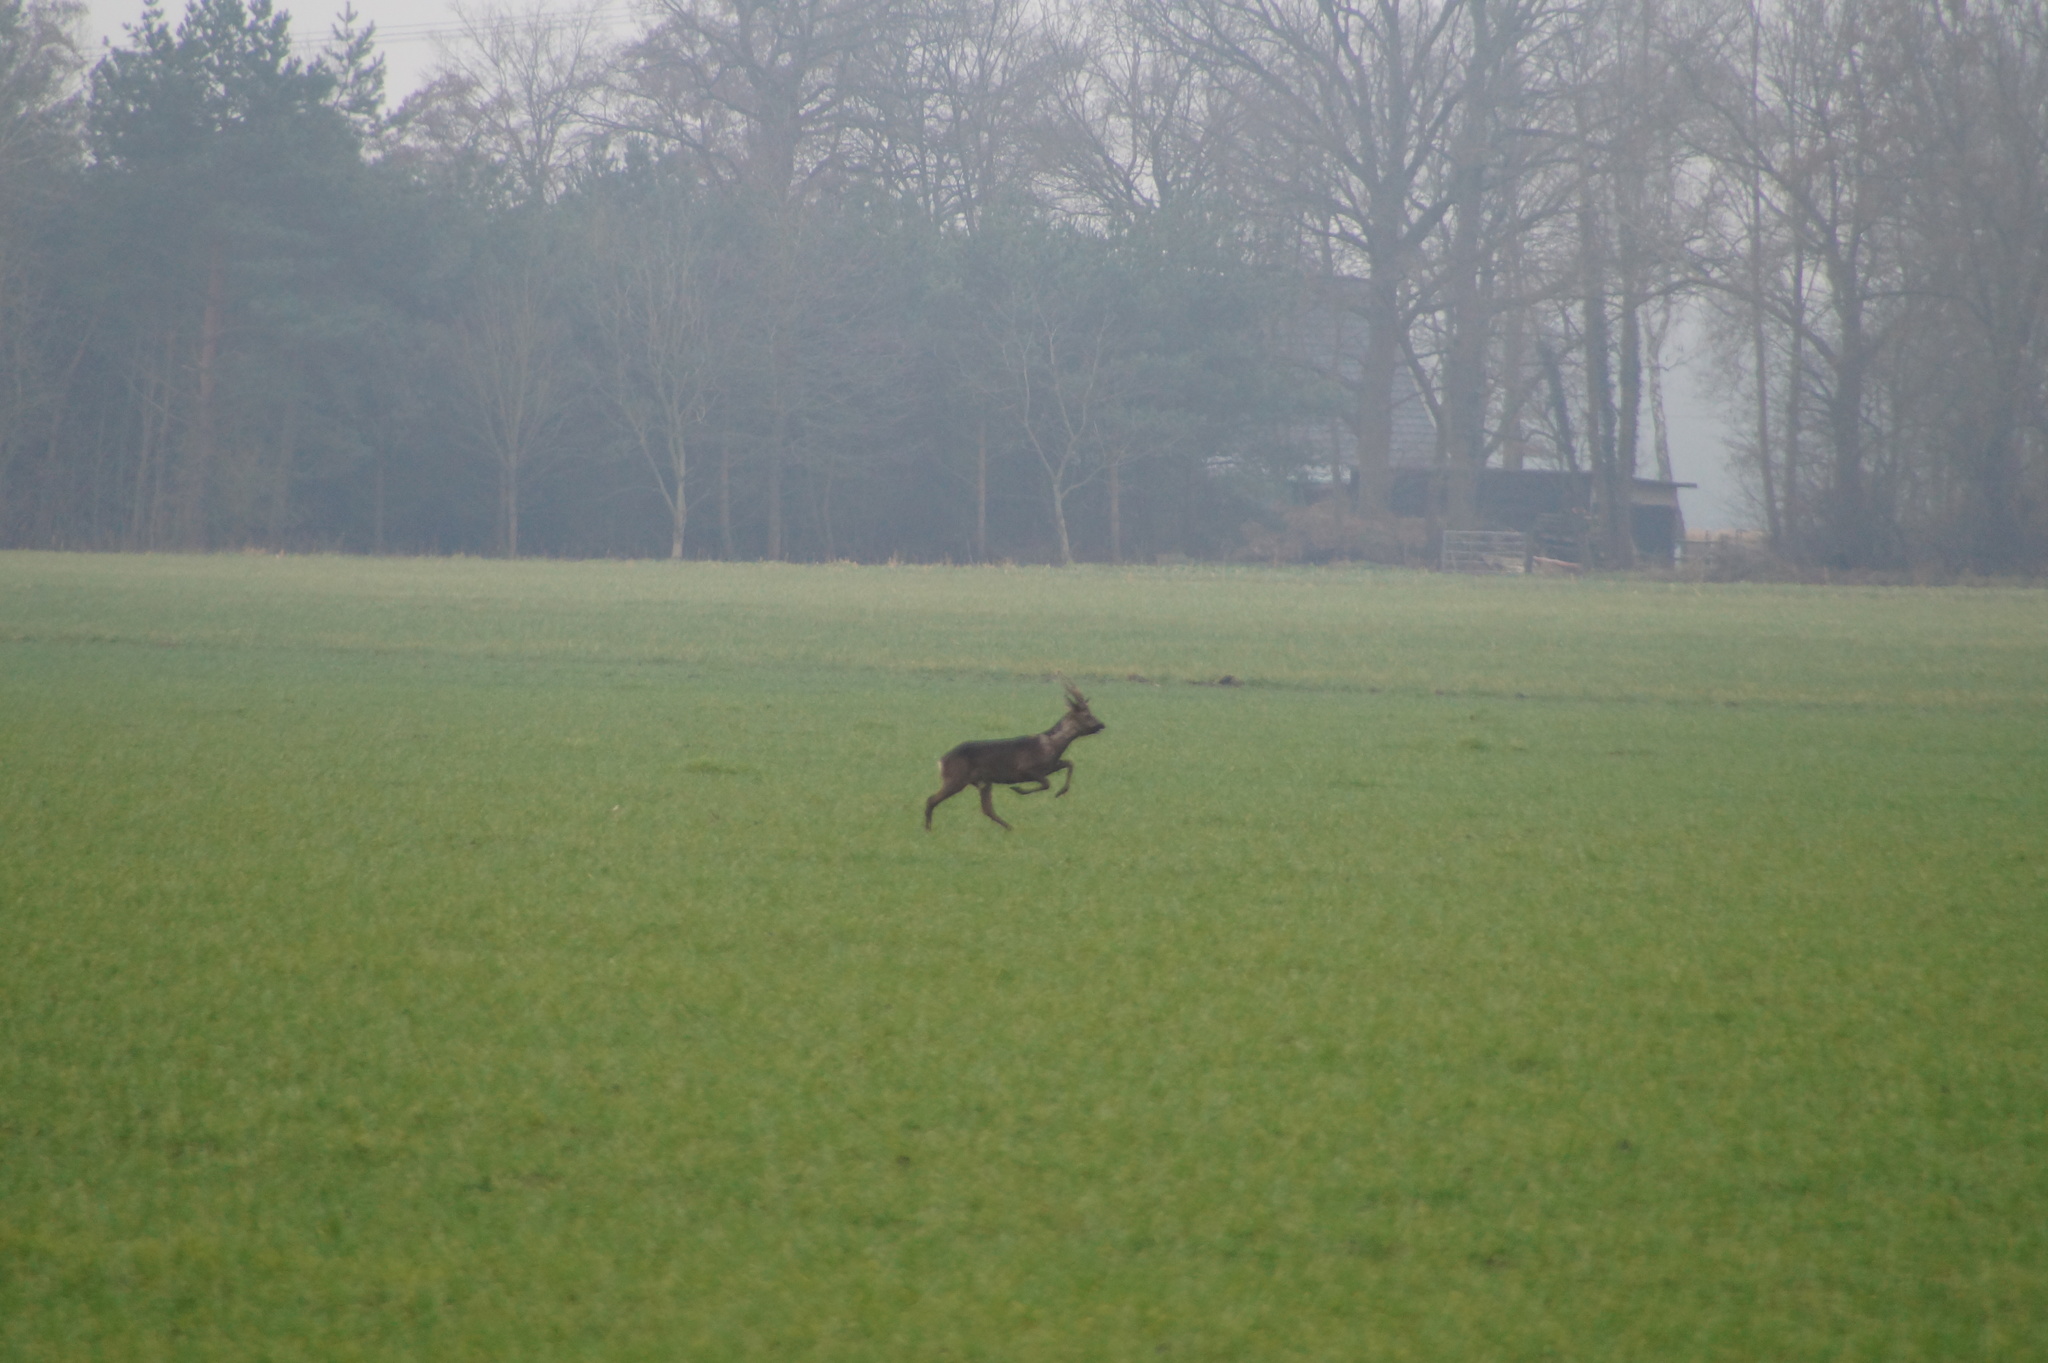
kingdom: Animalia
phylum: Chordata
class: Mammalia
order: Artiodactyla
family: Cervidae
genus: Capreolus
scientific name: Capreolus capreolus
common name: Western roe deer
